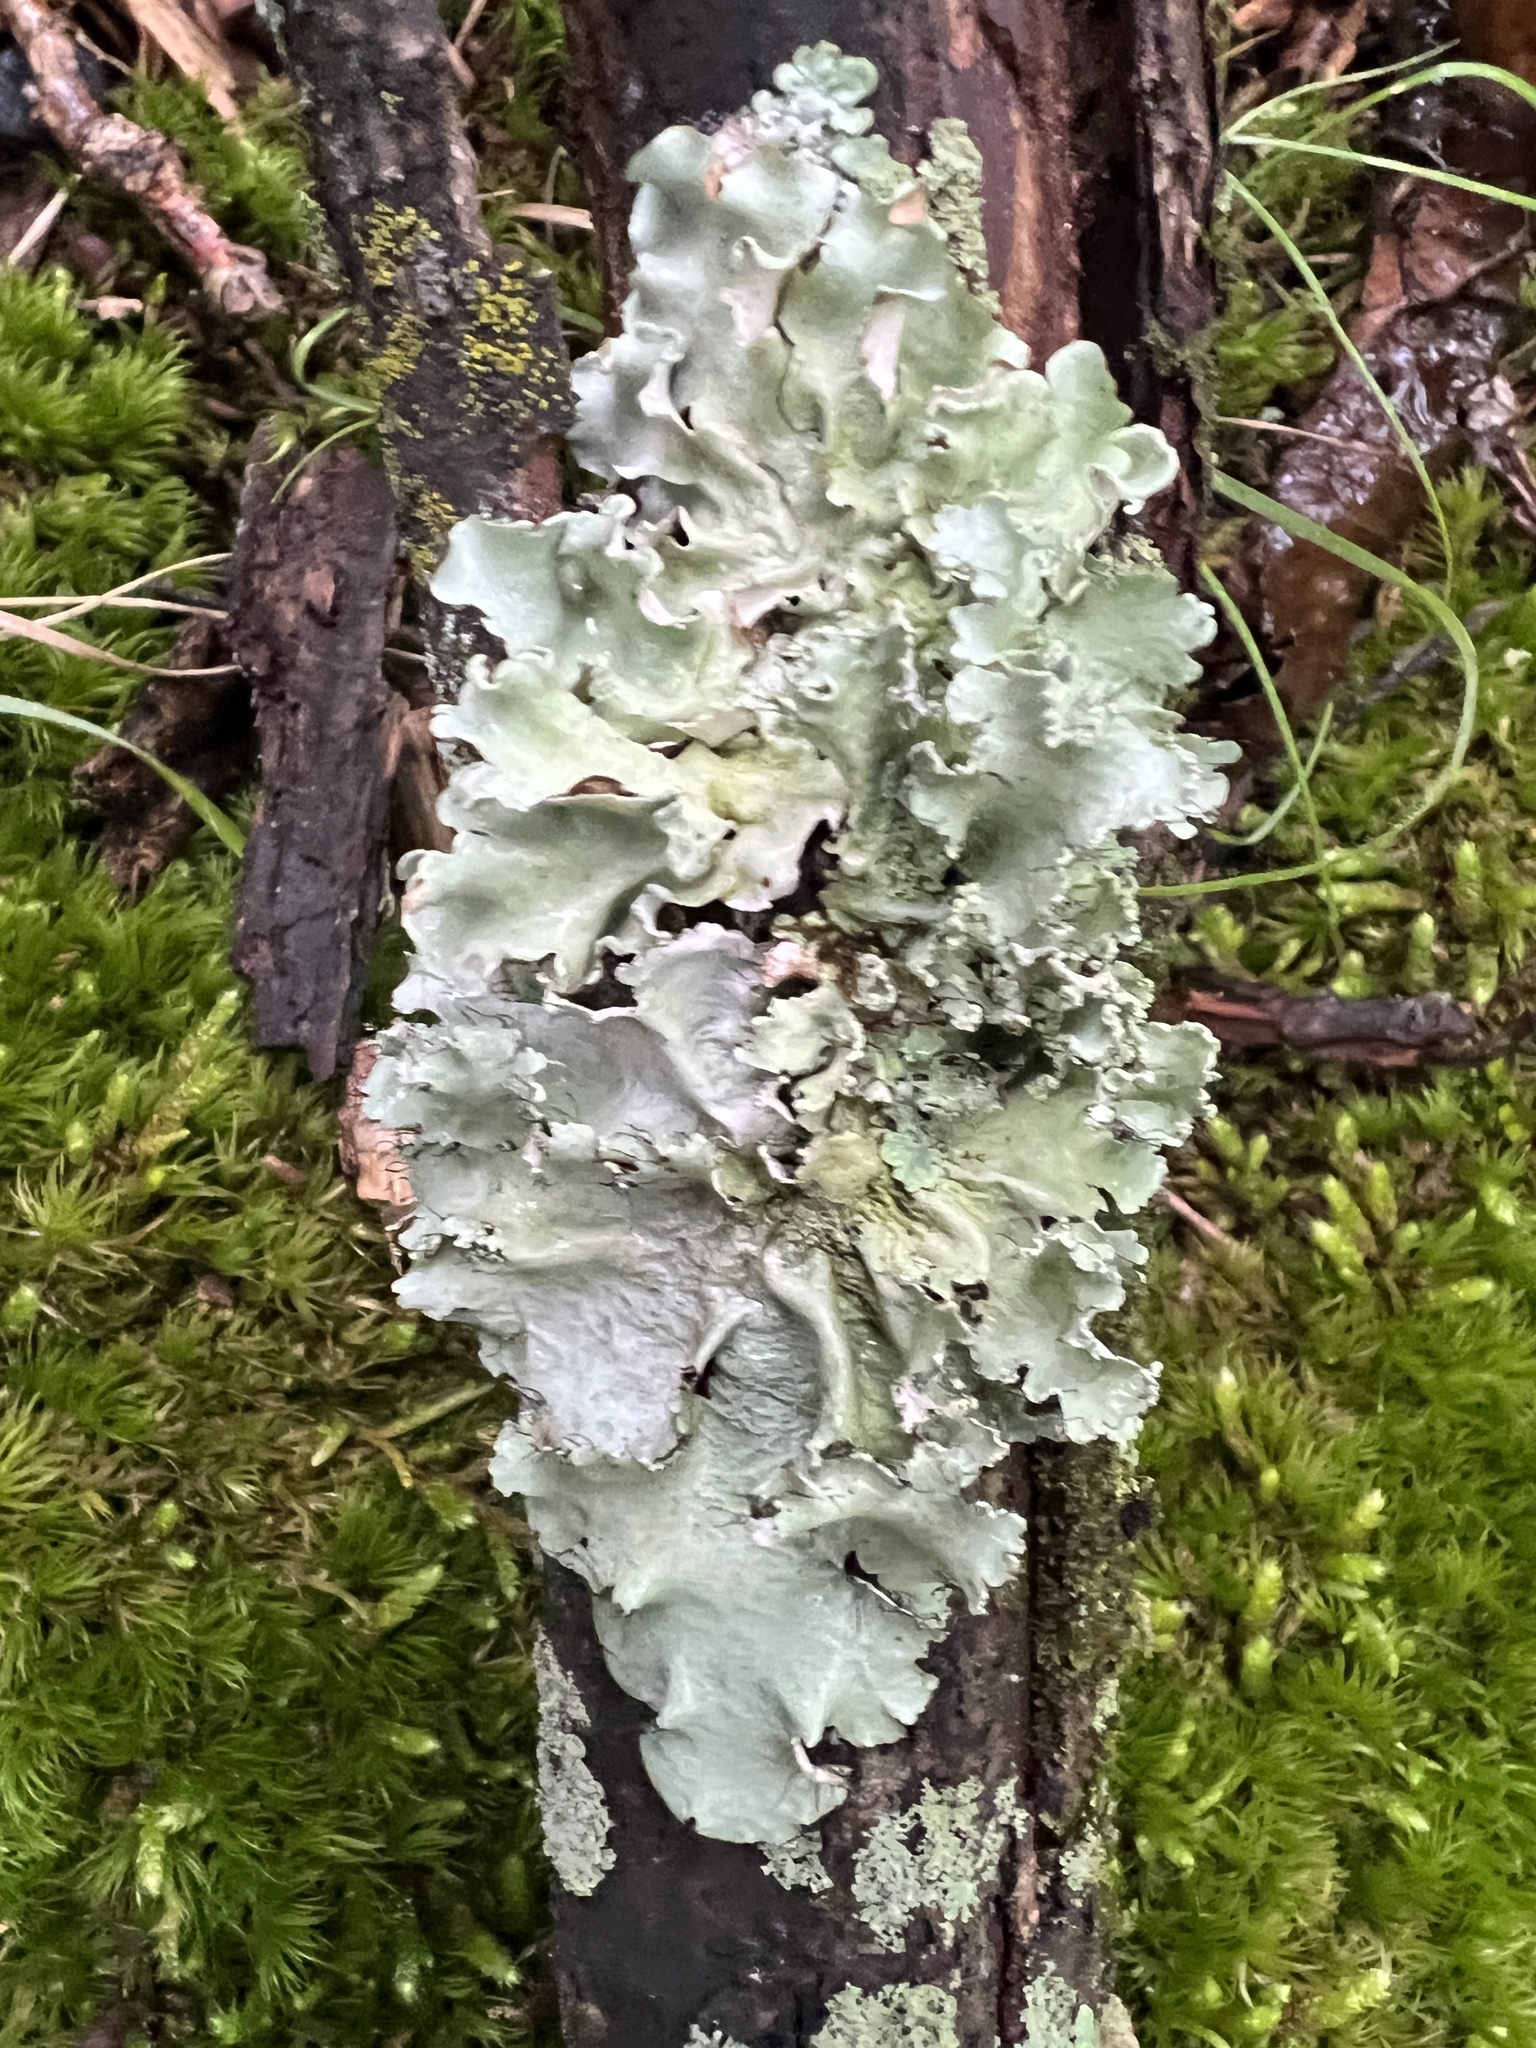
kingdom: Fungi
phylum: Ascomycota
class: Lecanoromycetes
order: Lecanorales
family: Parmeliaceae
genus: Parmotrema
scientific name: Parmotrema hypotropum
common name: Powdered ruffle lichen
